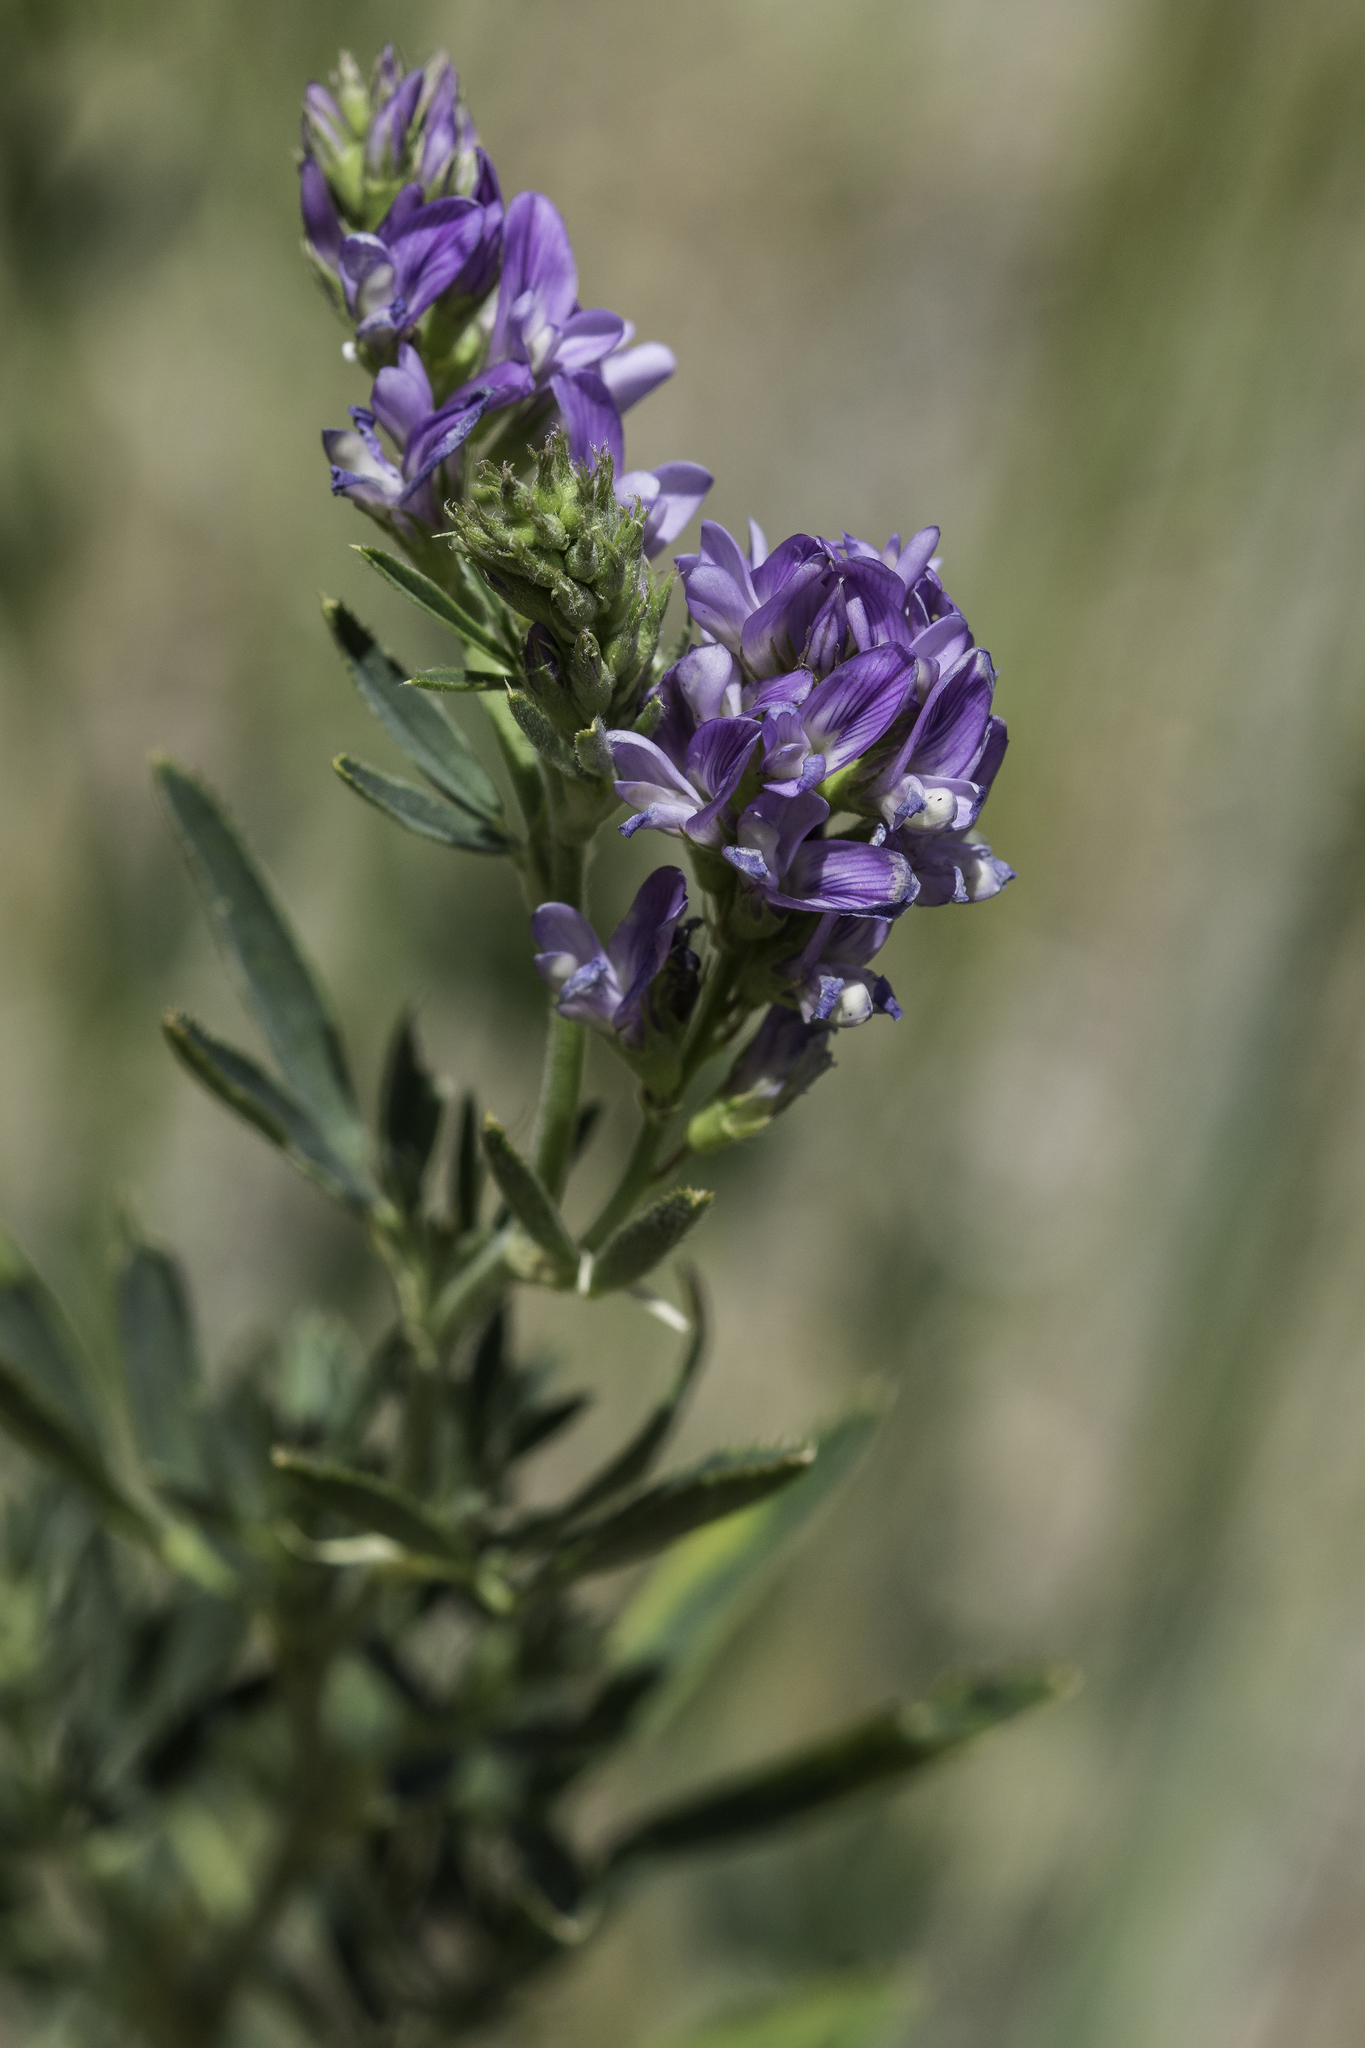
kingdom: Plantae
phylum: Tracheophyta
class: Magnoliopsida
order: Fabales
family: Fabaceae
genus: Medicago
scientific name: Medicago sativa
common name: Alfalfa
